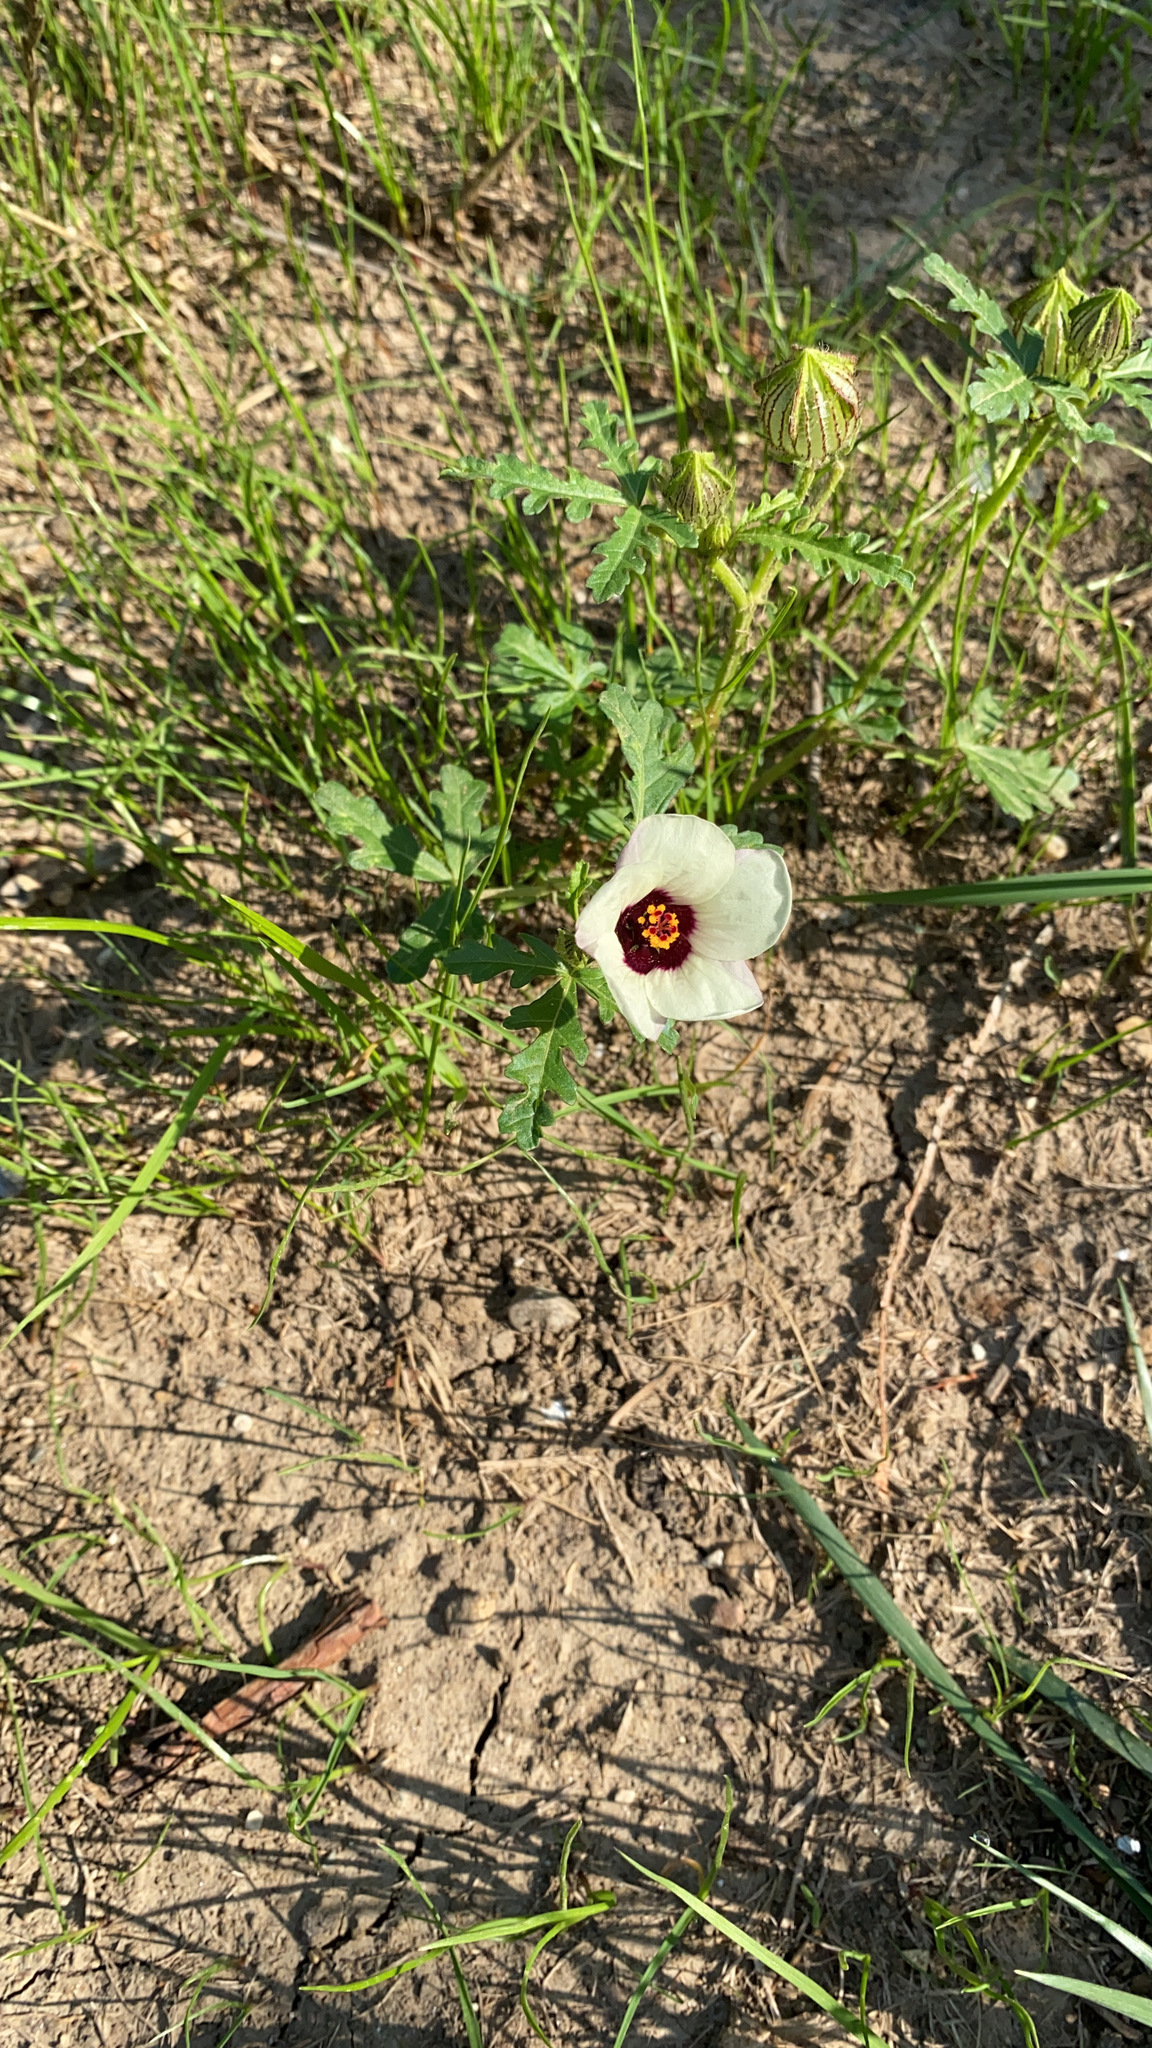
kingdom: Plantae
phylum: Tracheophyta
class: Magnoliopsida
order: Malvales
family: Malvaceae
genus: Hibiscus
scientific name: Hibiscus trionum
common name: Bladder ketmia
